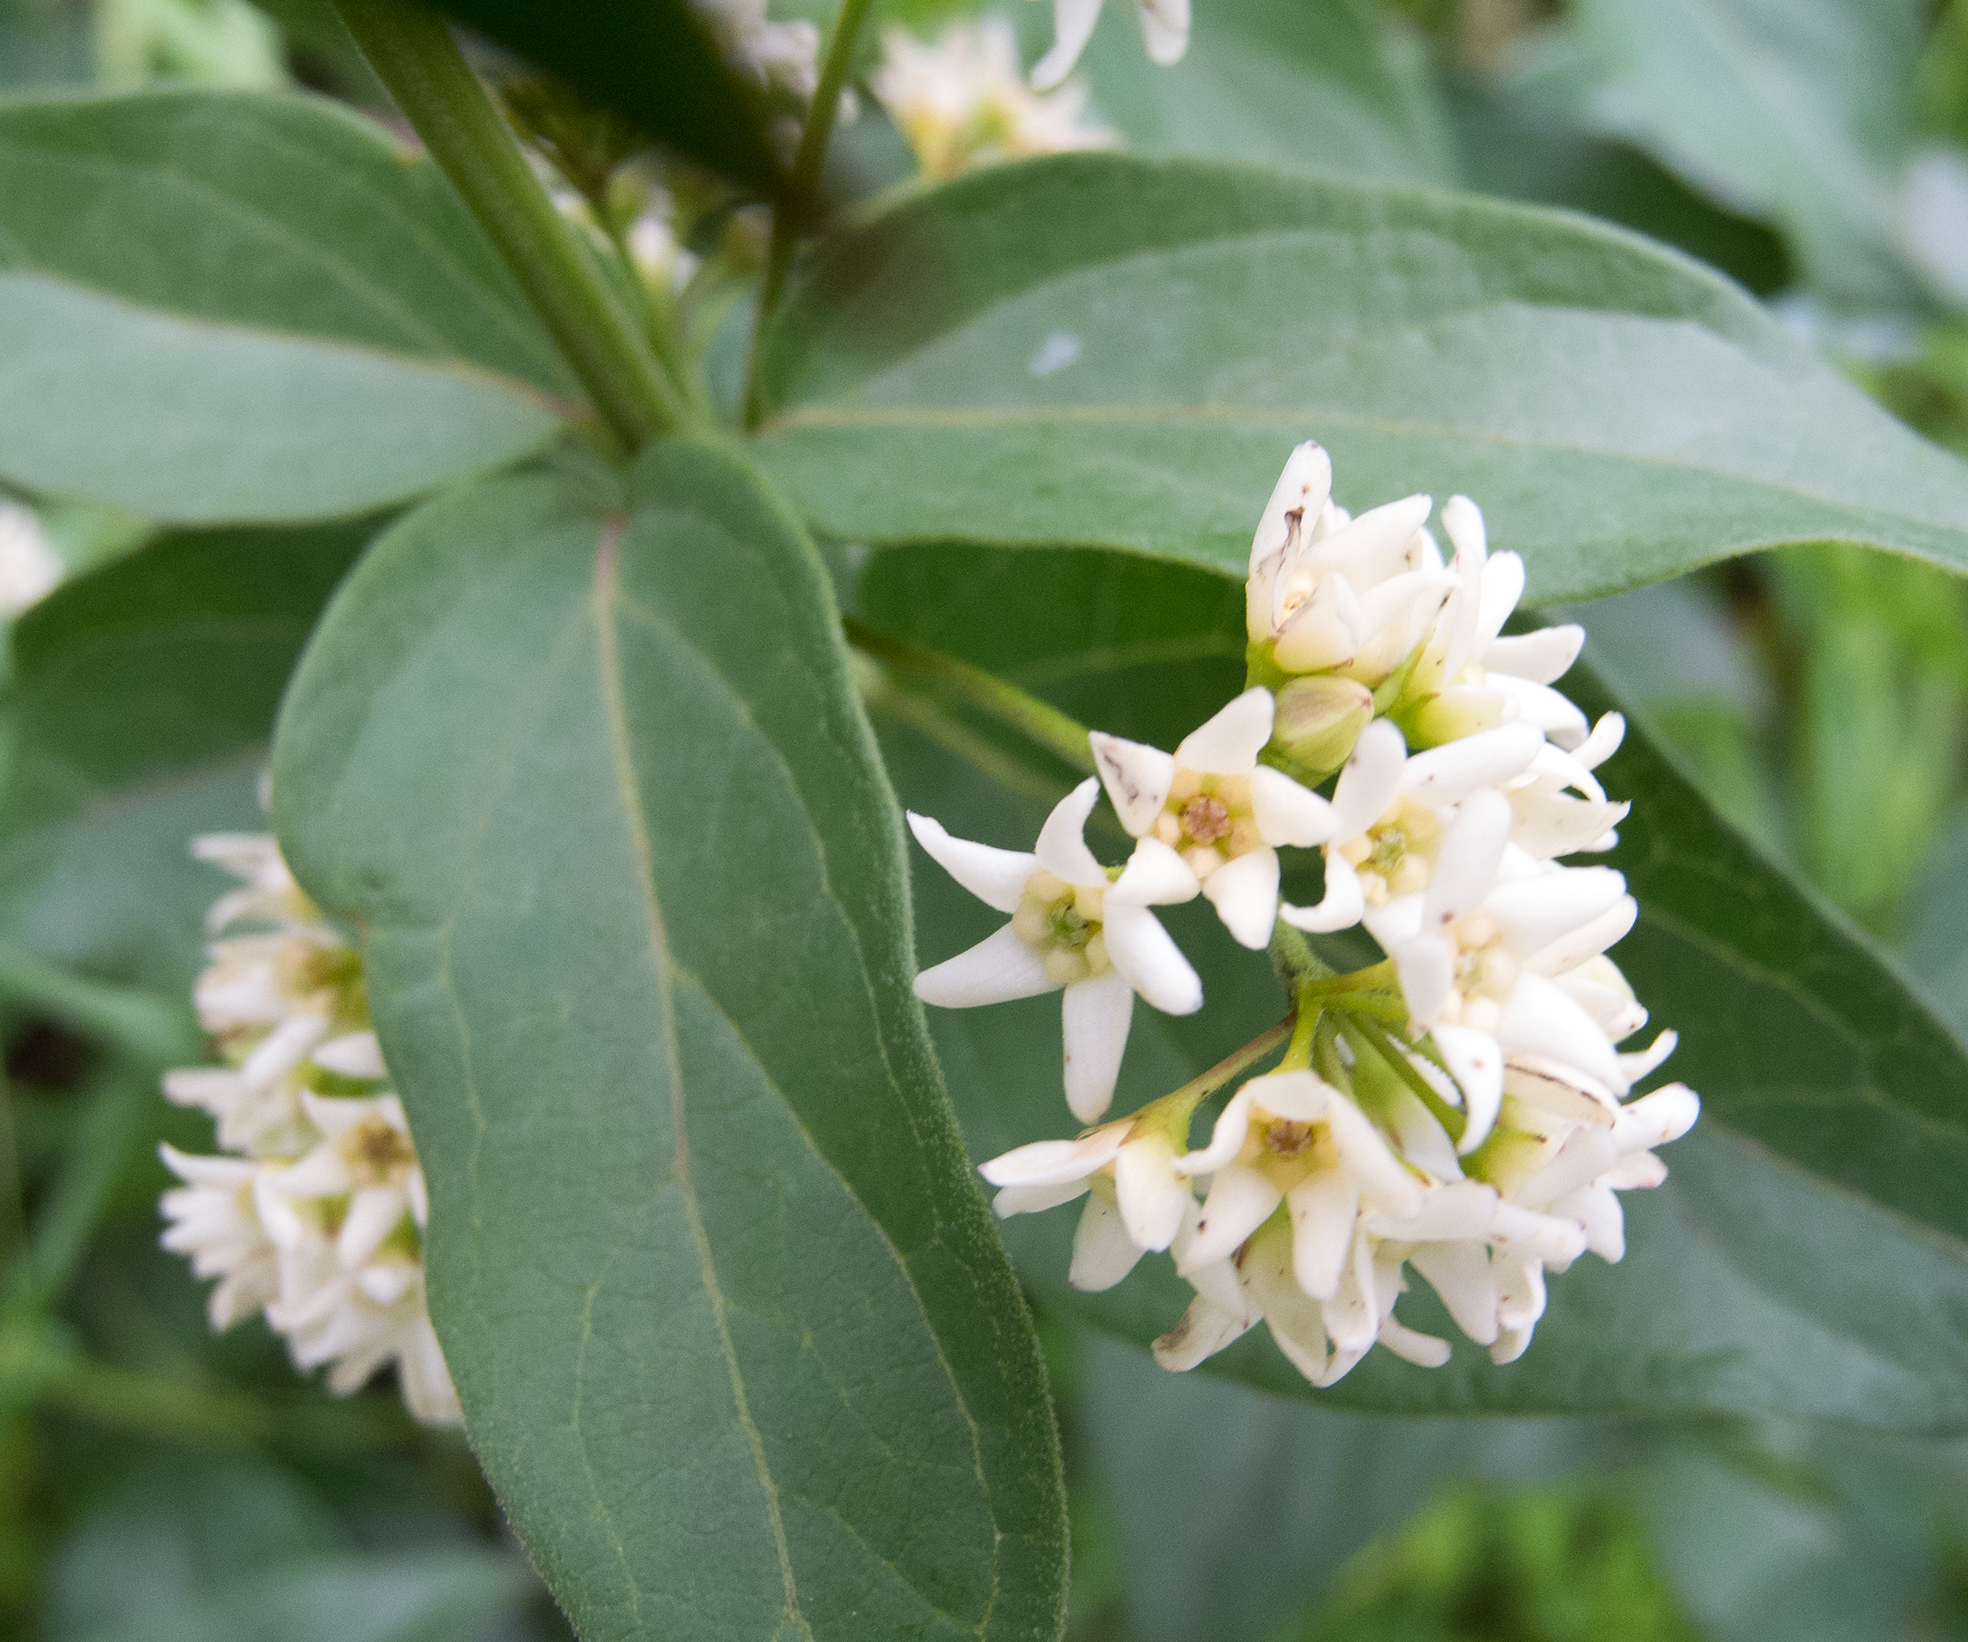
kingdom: Plantae
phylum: Tracheophyta
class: Magnoliopsida
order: Gentianales
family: Apocynaceae
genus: Vincetoxicum
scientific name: Vincetoxicum hirundinaria
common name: White swallowwort
